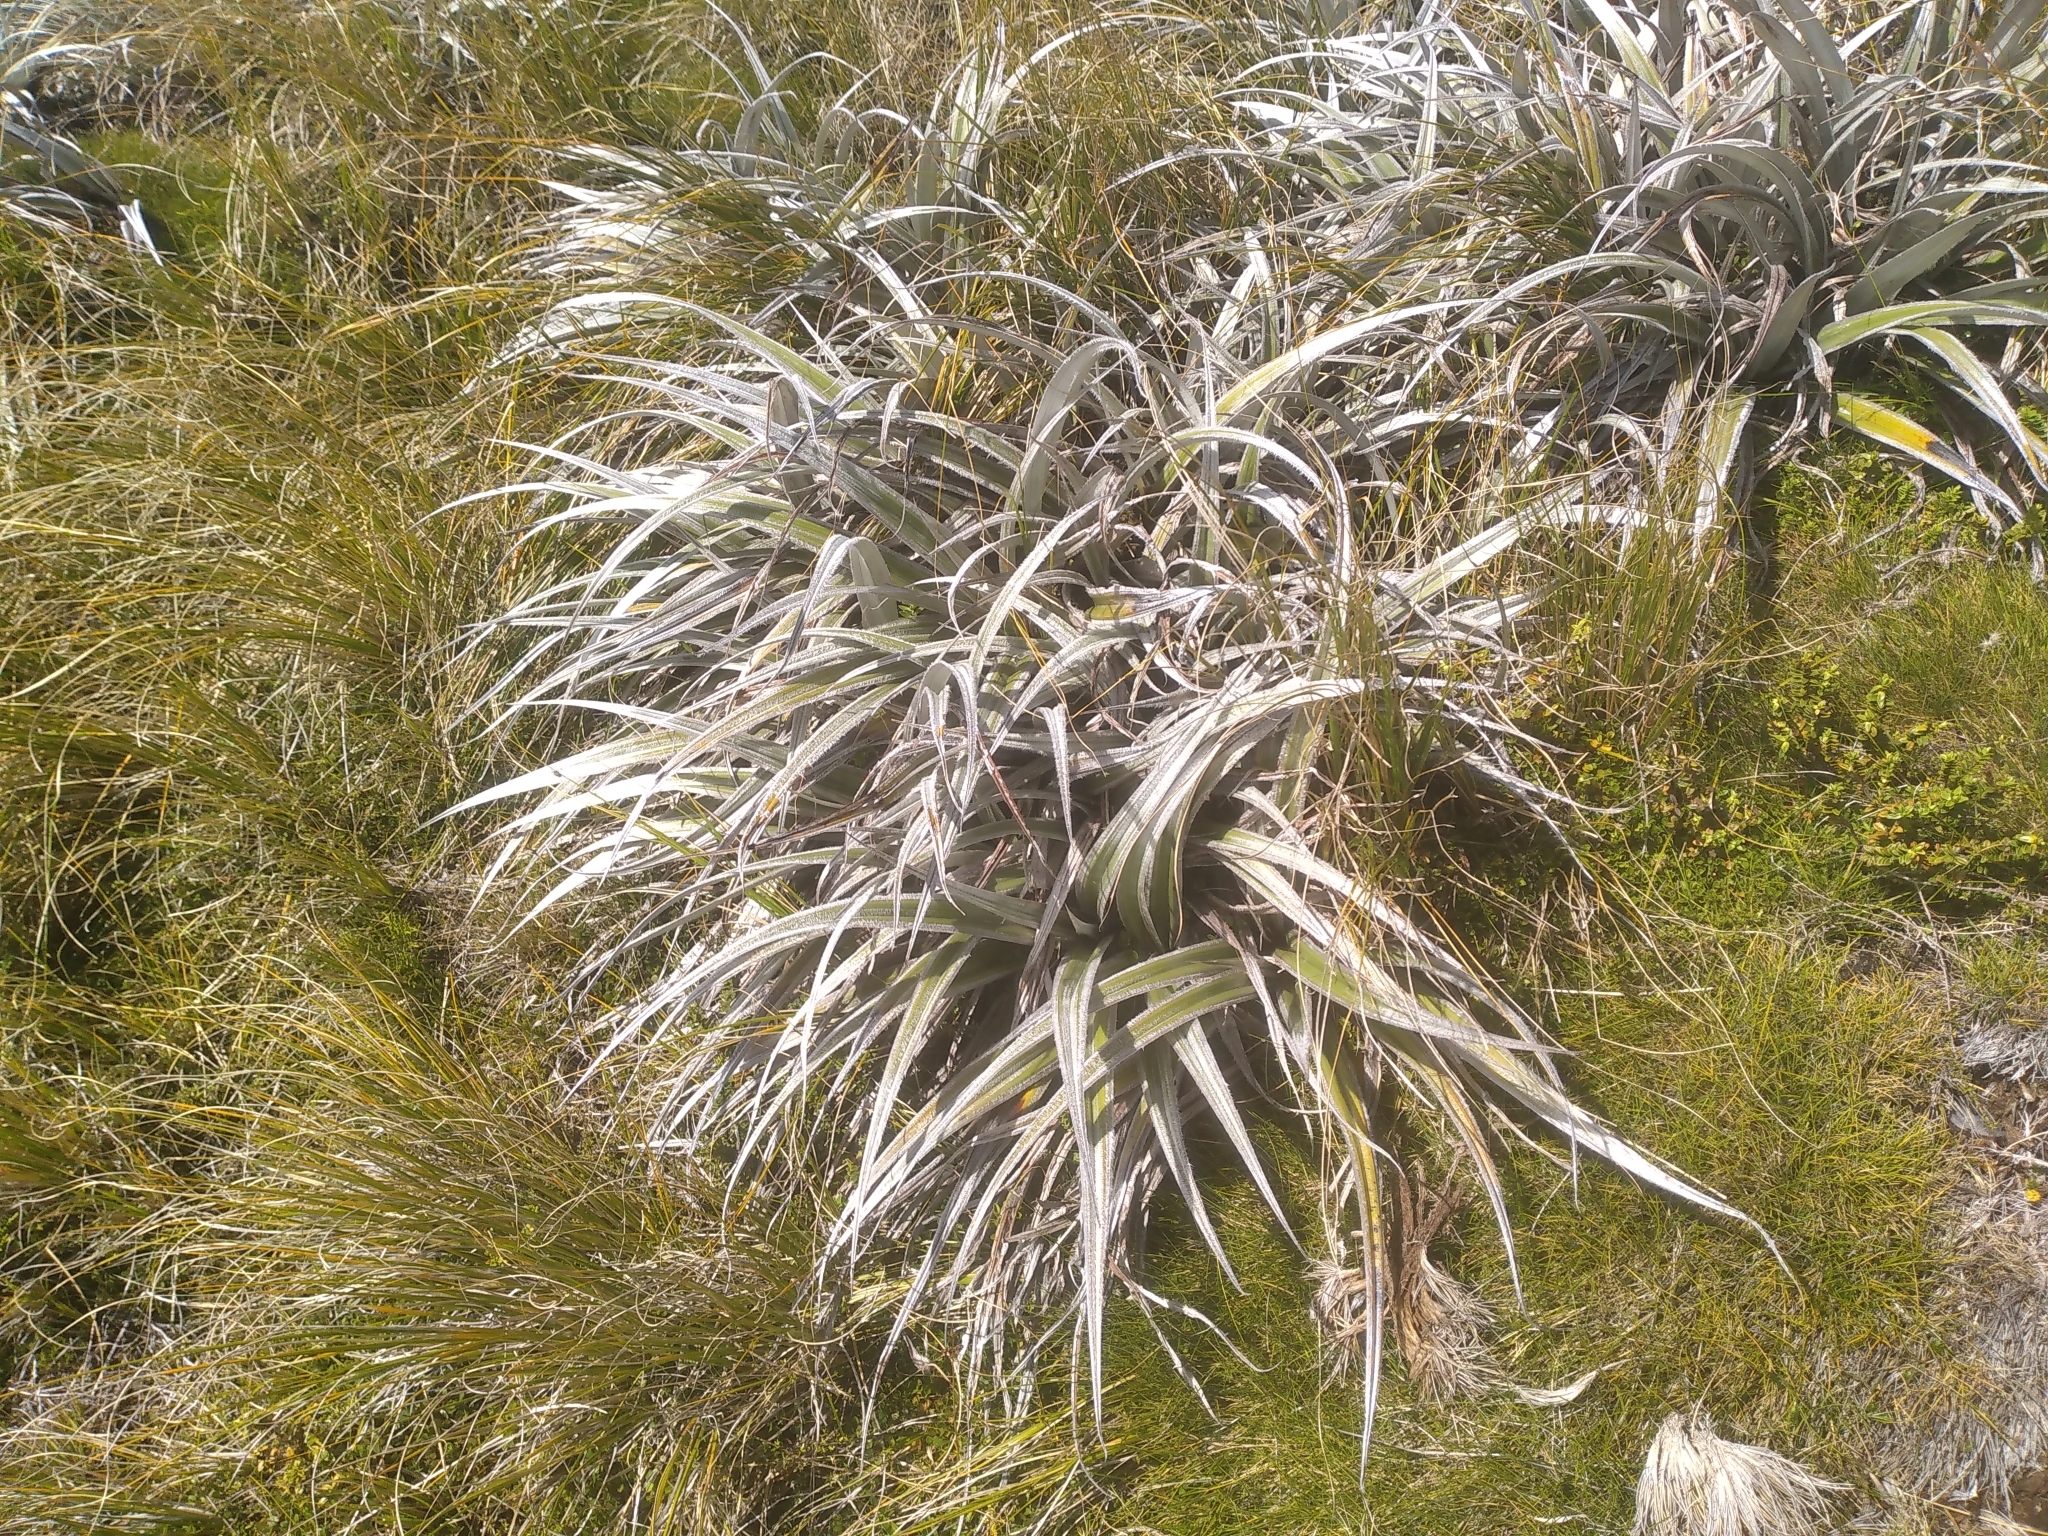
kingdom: Plantae
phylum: Tracheophyta
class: Liliopsida
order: Asparagales
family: Asteliaceae
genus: Astelia
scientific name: Astelia nervosa
